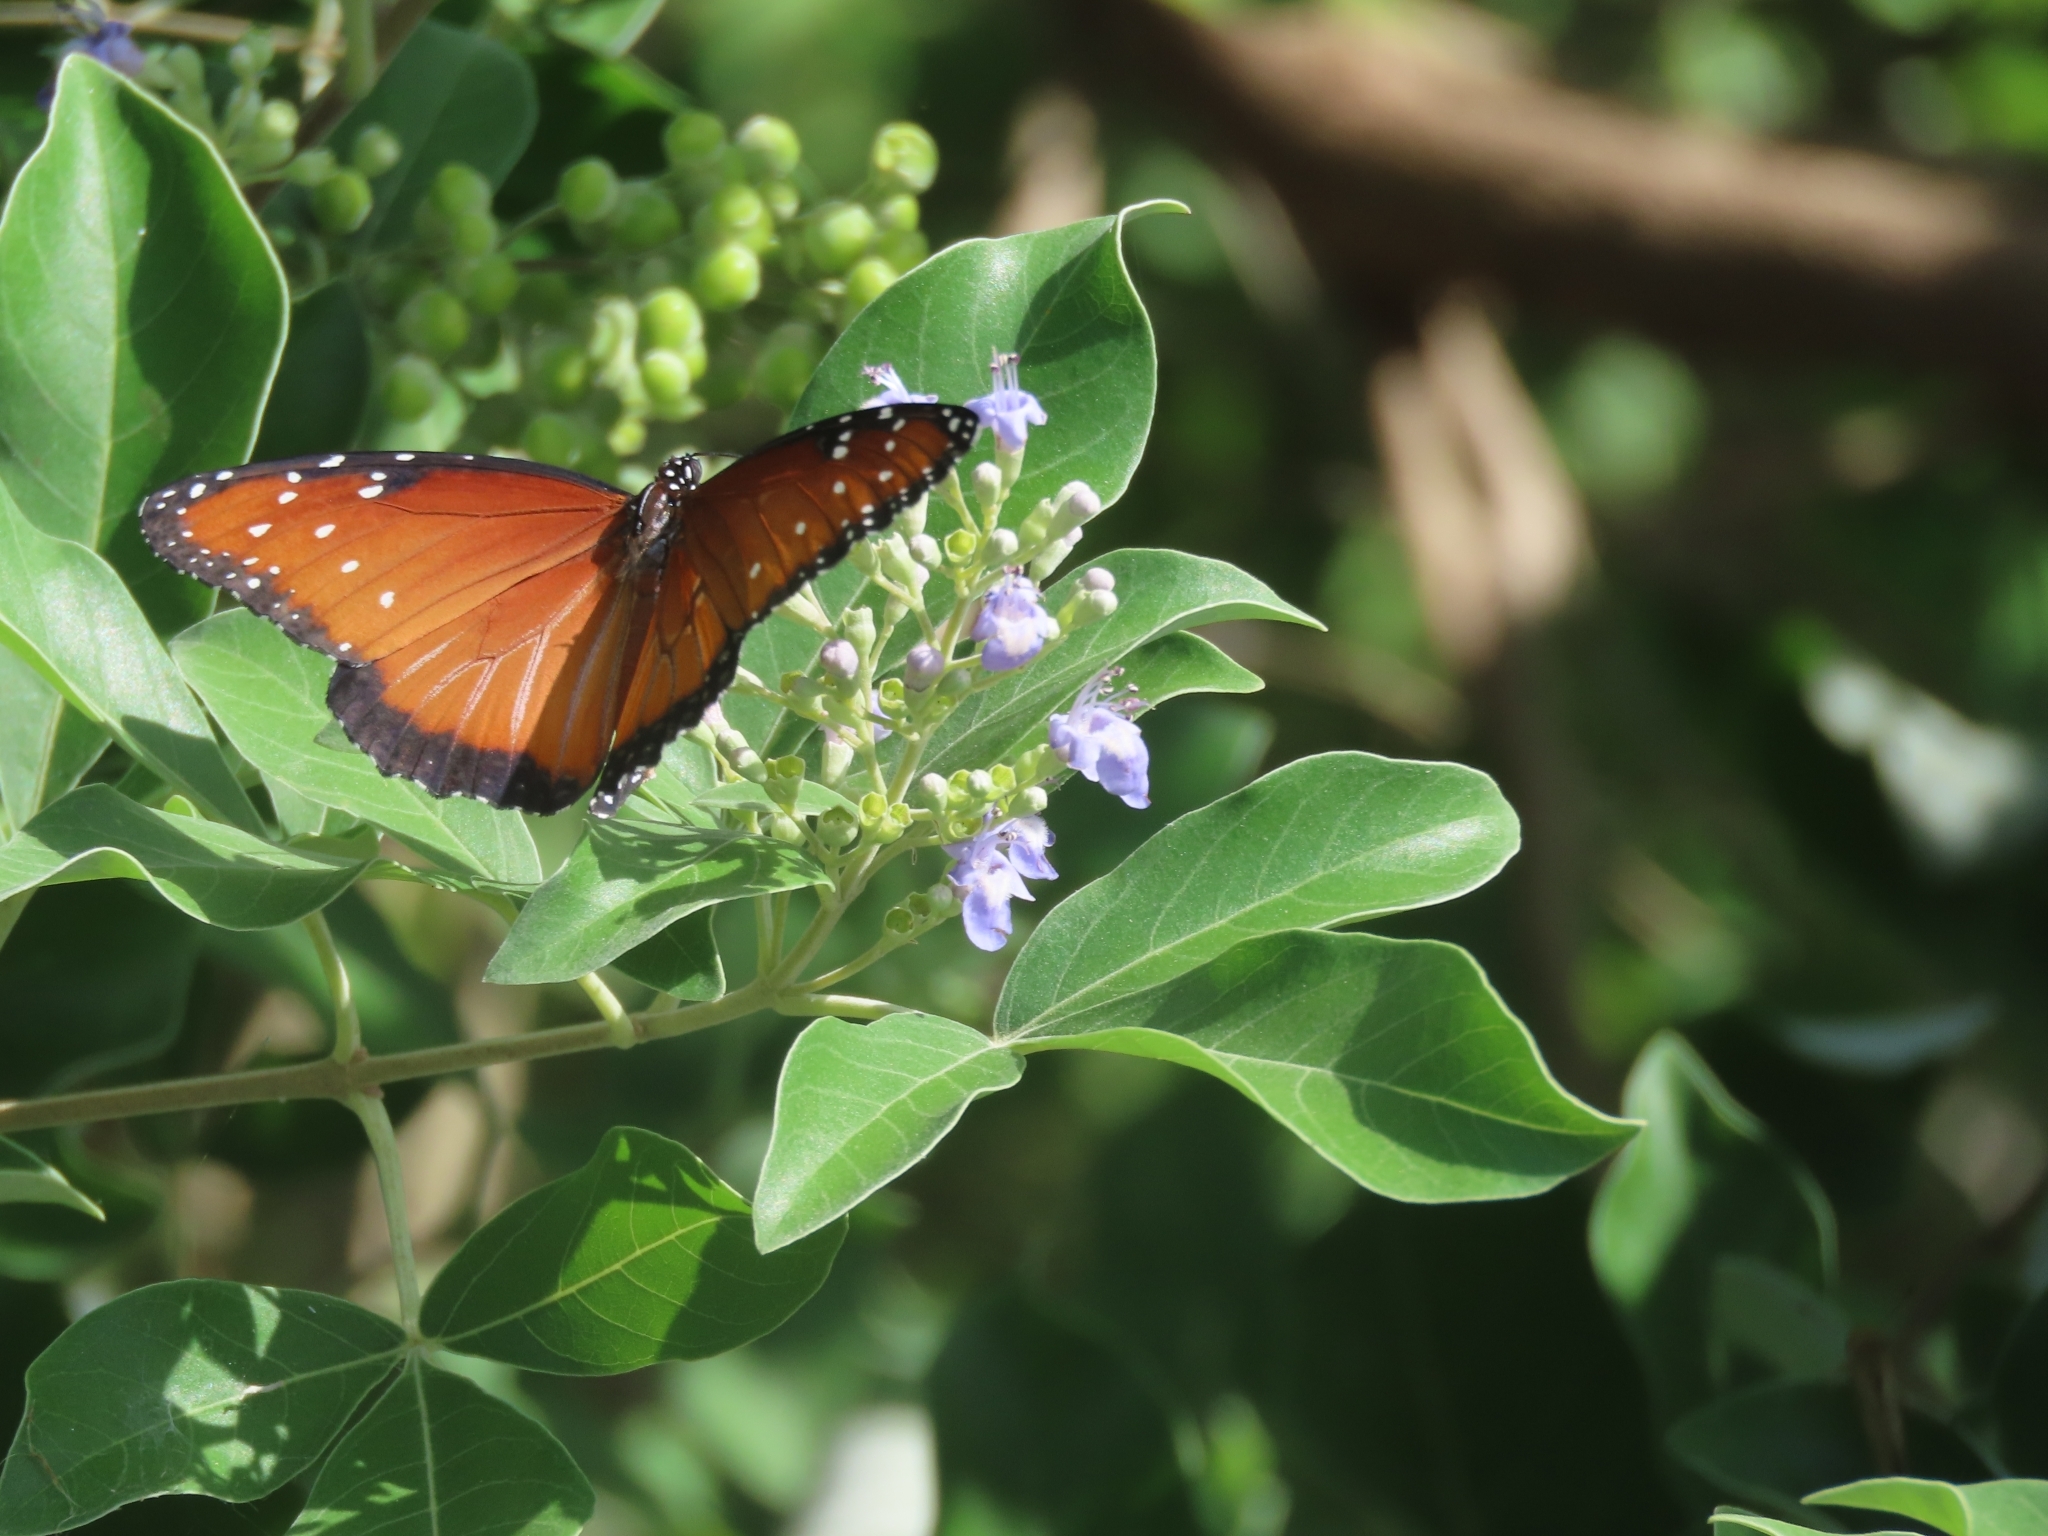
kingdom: Animalia
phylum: Arthropoda
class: Insecta
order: Lepidoptera
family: Nymphalidae
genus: Danaus
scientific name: Danaus gilippus
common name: Queen
